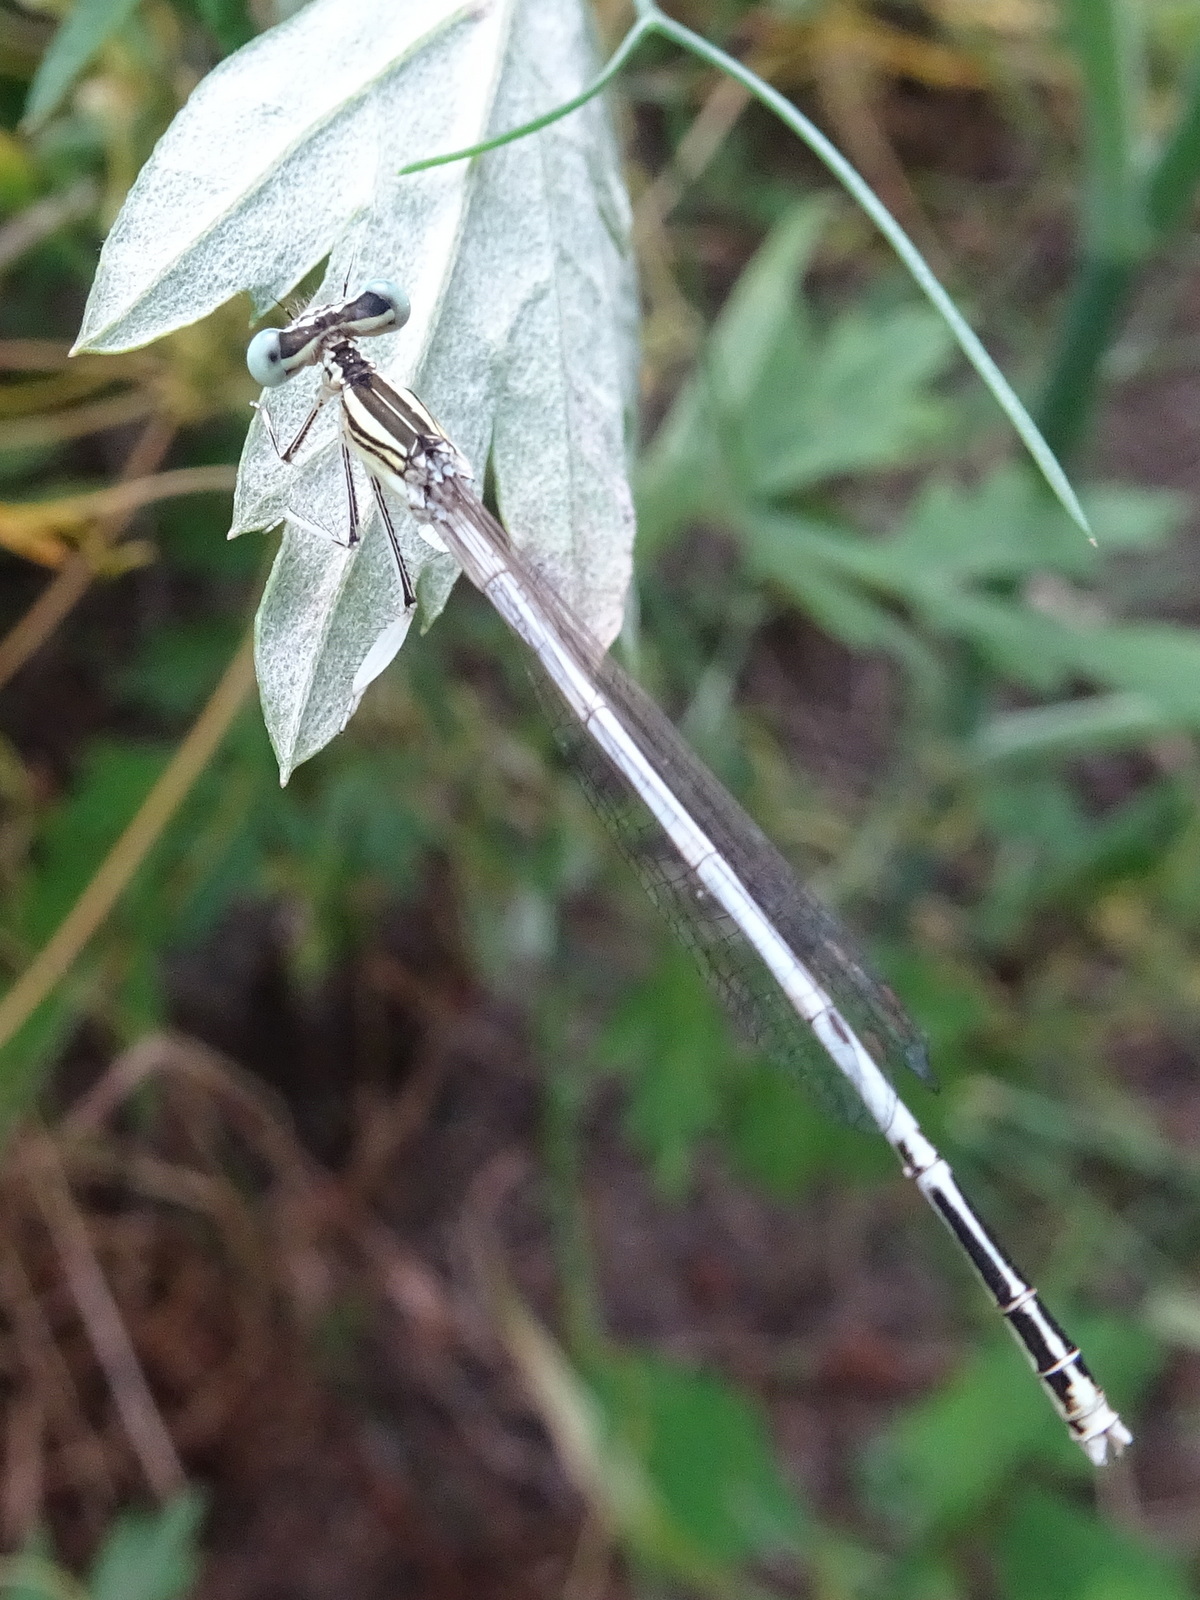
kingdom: Animalia
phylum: Arthropoda
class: Insecta
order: Odonata
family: Platycnemididae
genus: Platycnemis
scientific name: Platycnemis latipes
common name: White featherleg
